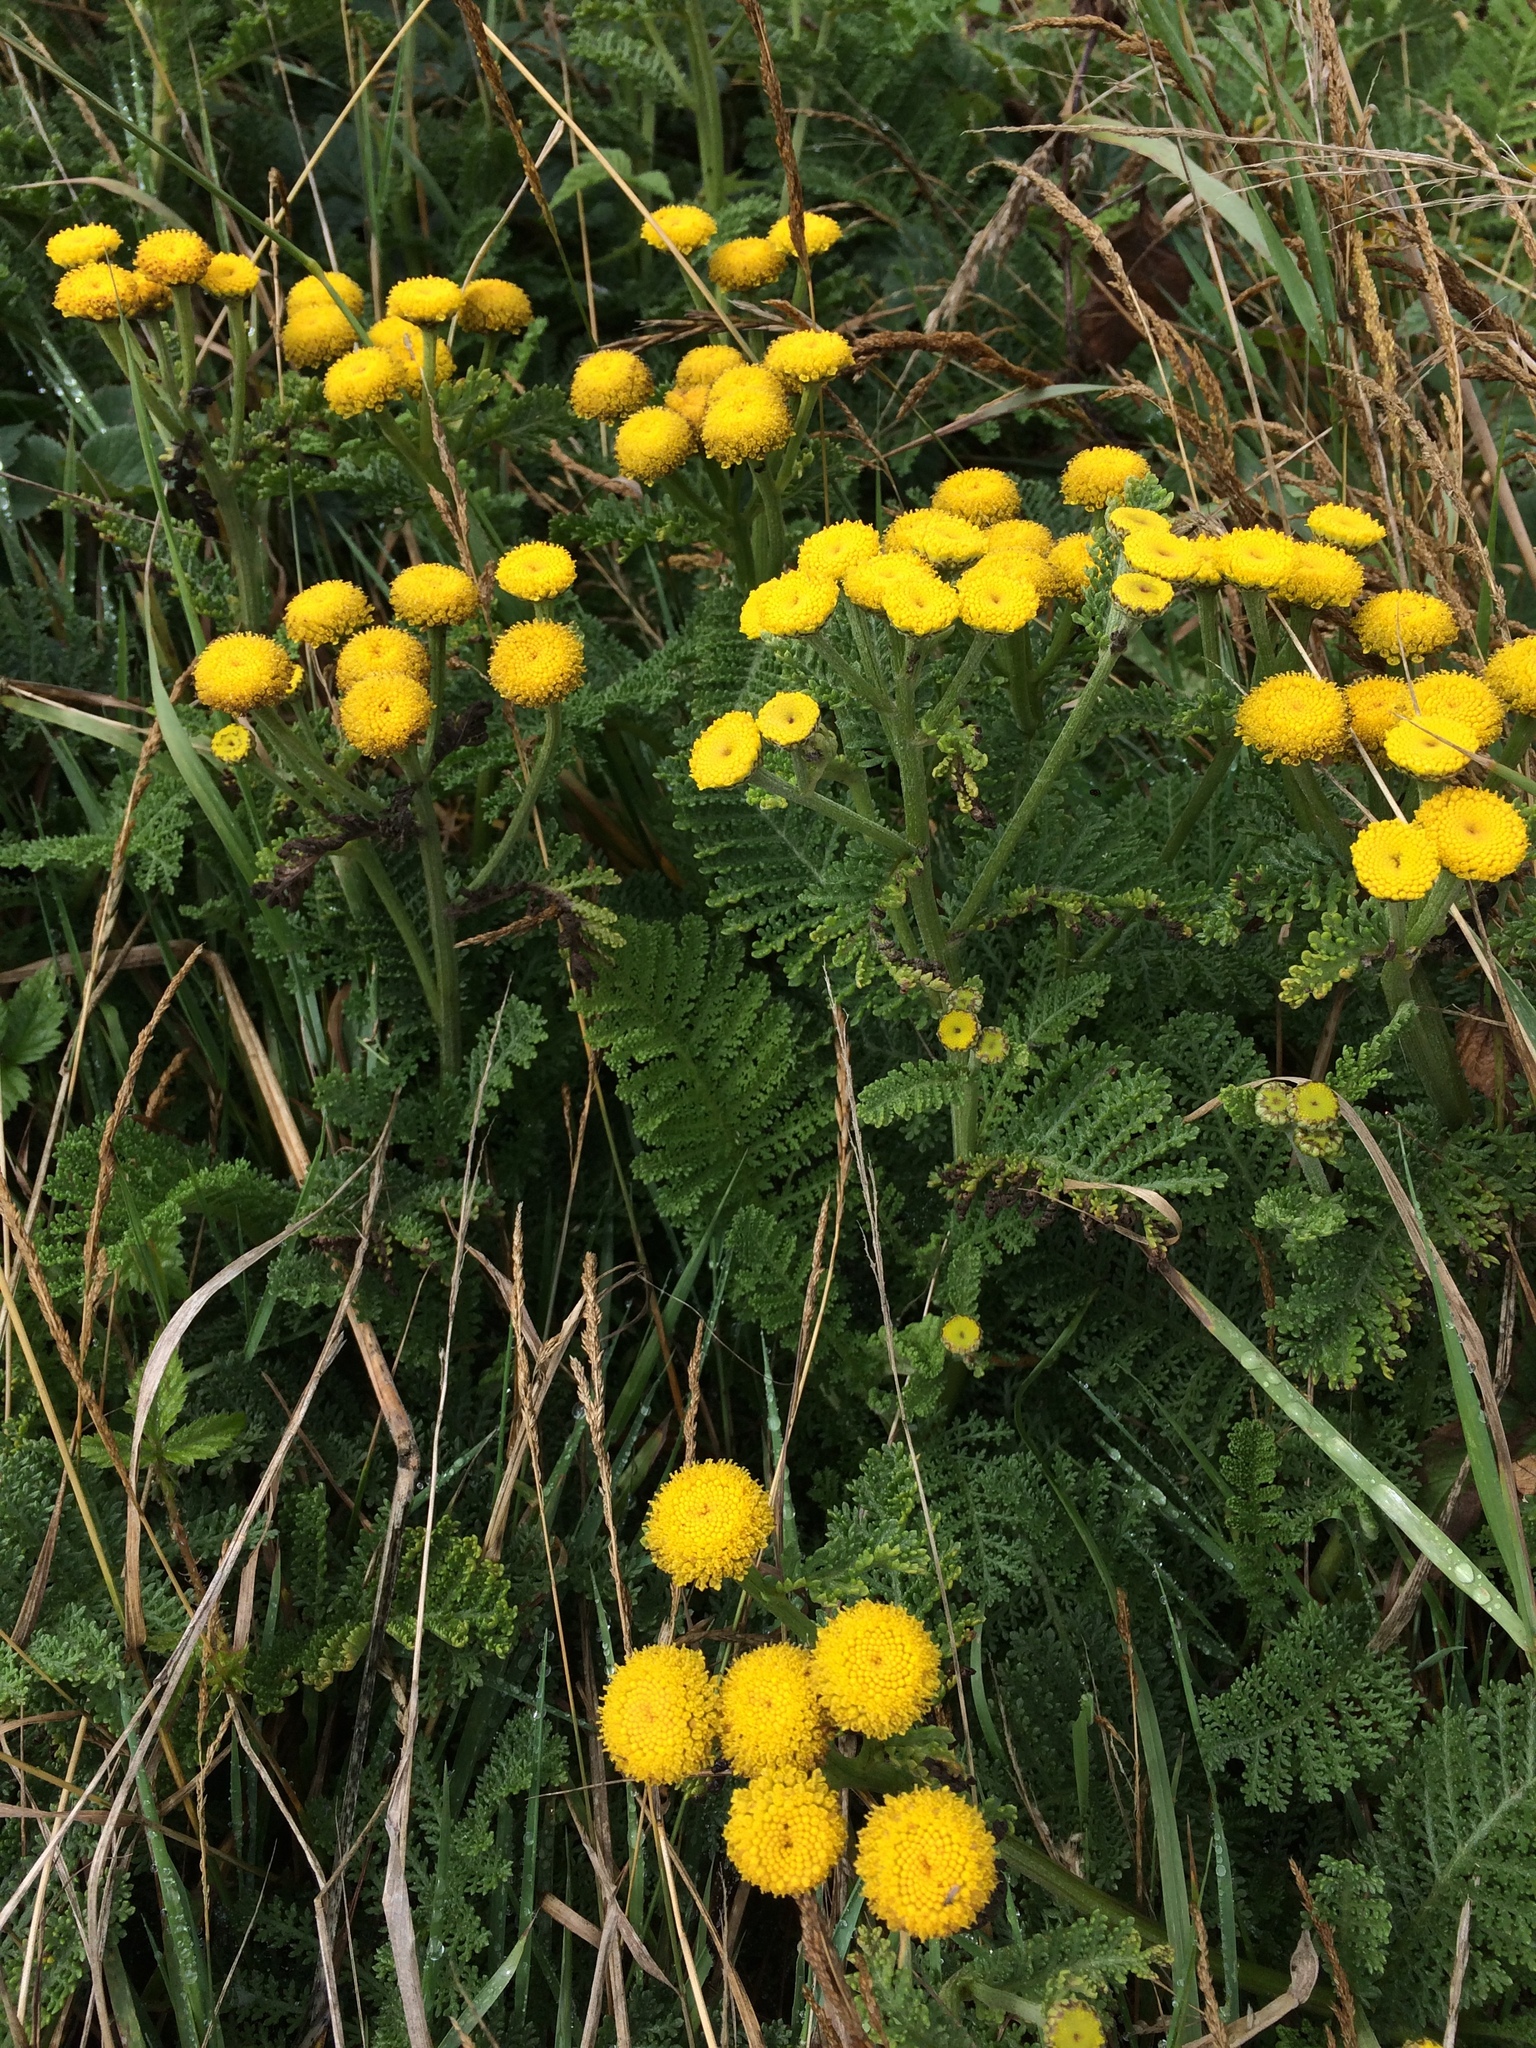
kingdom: Plantae
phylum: Tracheophyta
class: Magnoliopsida
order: Asterales
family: Asteraceae
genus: Tanacetum
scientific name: Tanacetum bipinnatum
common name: Dwarf tansy
